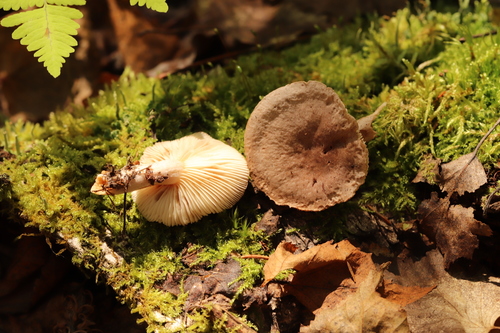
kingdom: Fungi
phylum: Basidiomycota
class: Agaricomycetes
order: Russulales
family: Russulaceae
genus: Lactarius
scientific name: Lactarius glyciosmus
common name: Coconut milkcap
